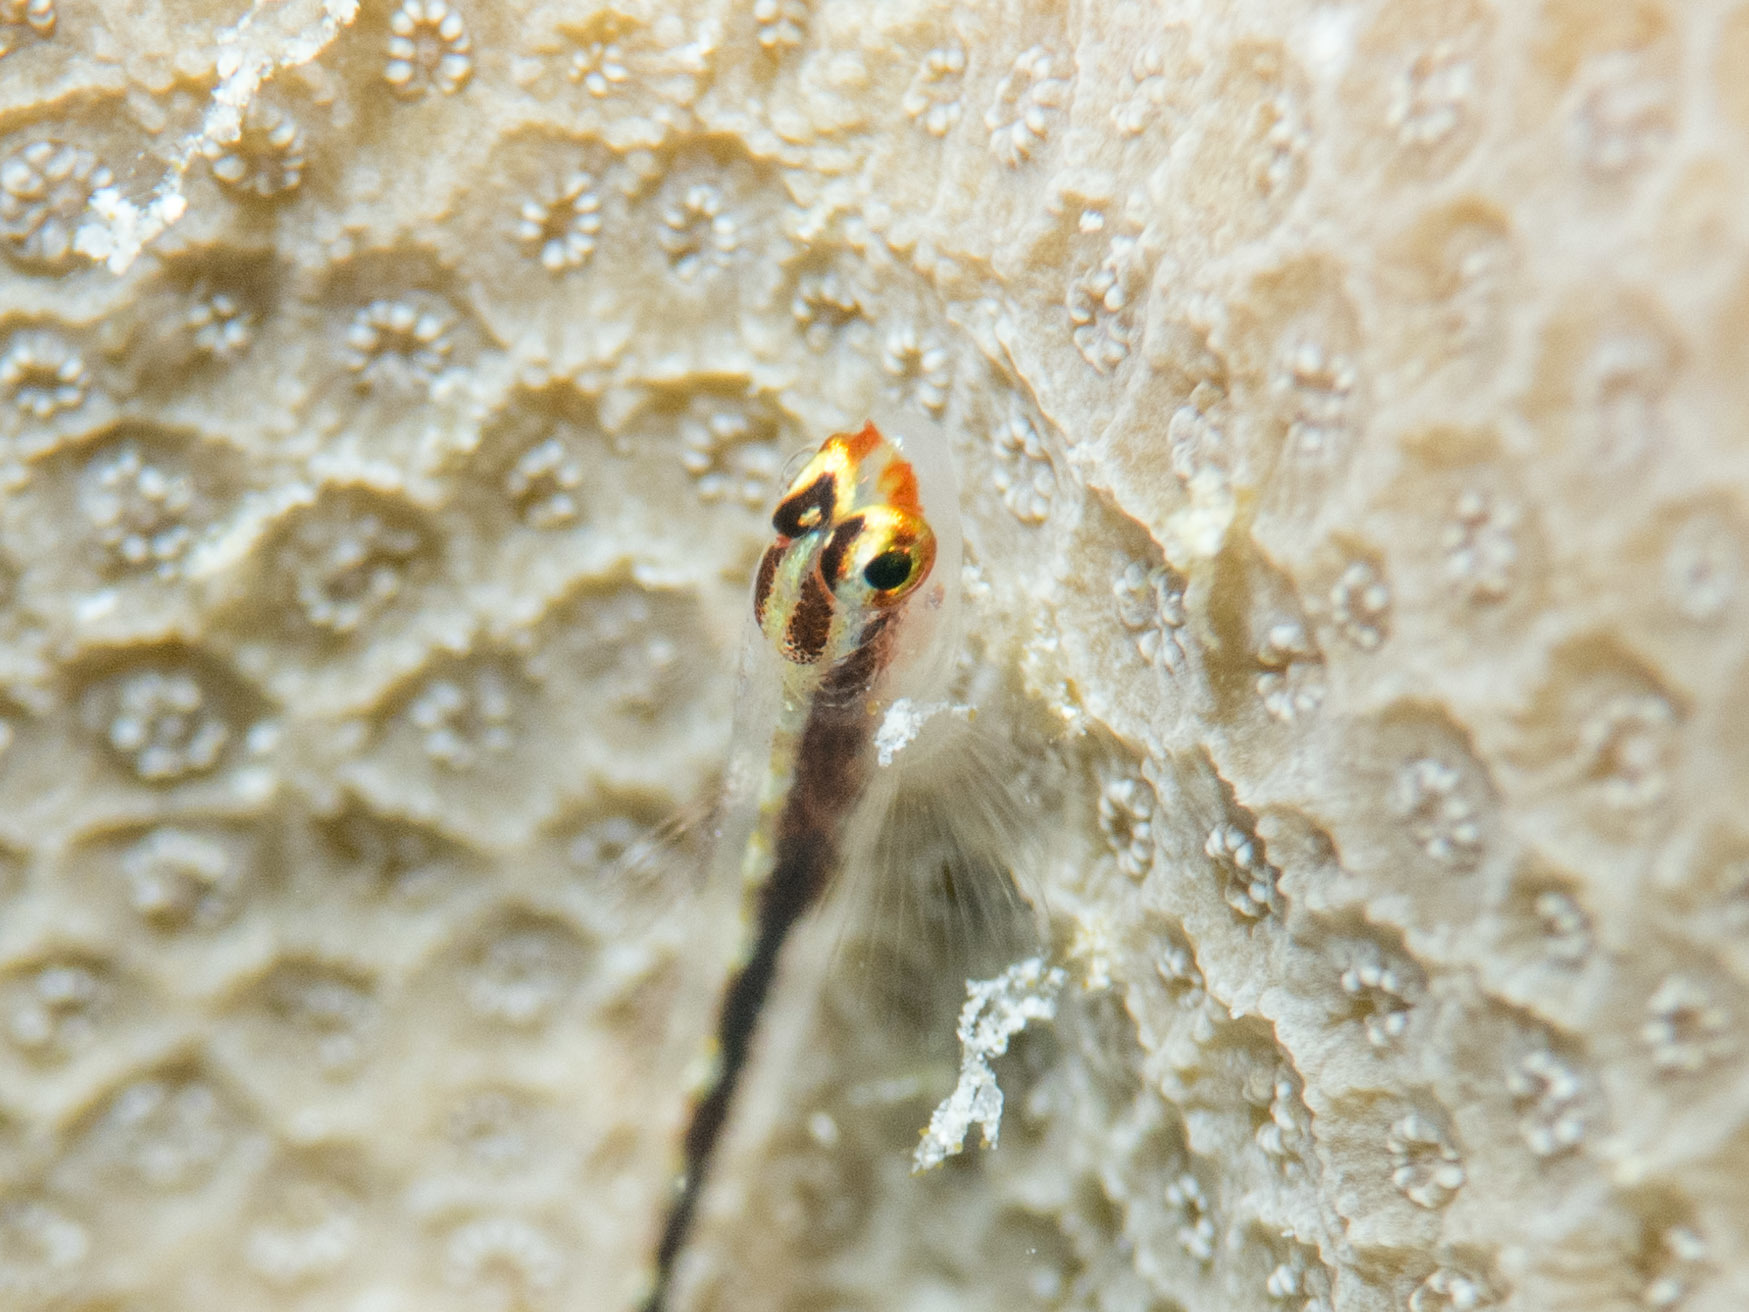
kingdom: Animalia
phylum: Chordata
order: Perciformes
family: Gobiidae
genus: Eviota
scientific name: Eviota punyit
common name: Punyit dwarfgoby
